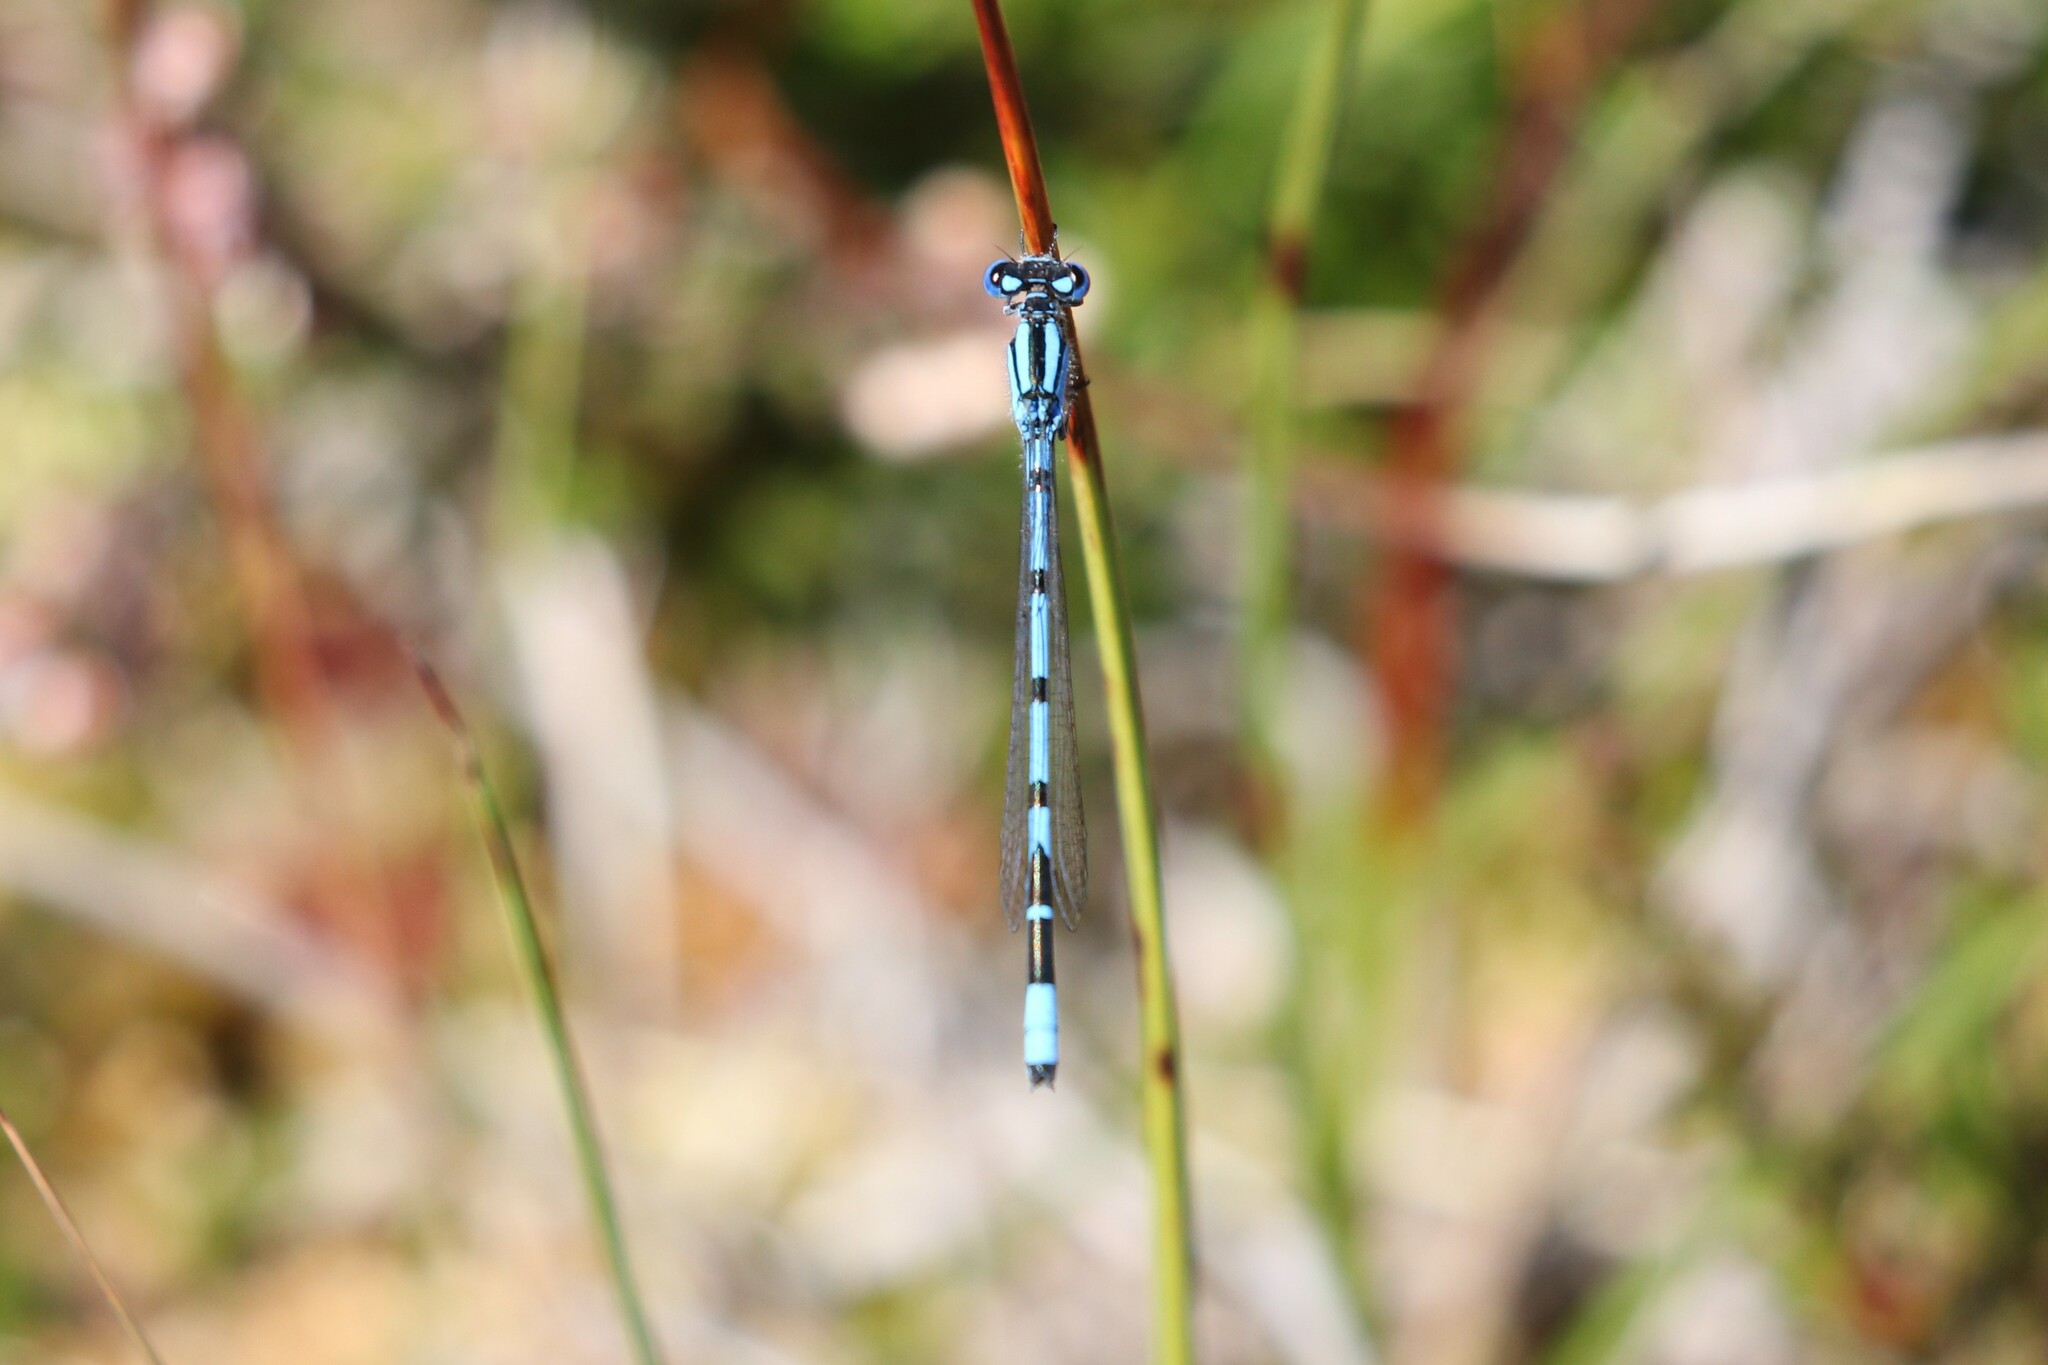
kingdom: Animalia
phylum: Arthropoda
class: Insecta
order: Odonata
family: Coenagrionidae
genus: Enallagma
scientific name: Enallagma cyathigerum
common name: Common blue damselfly
